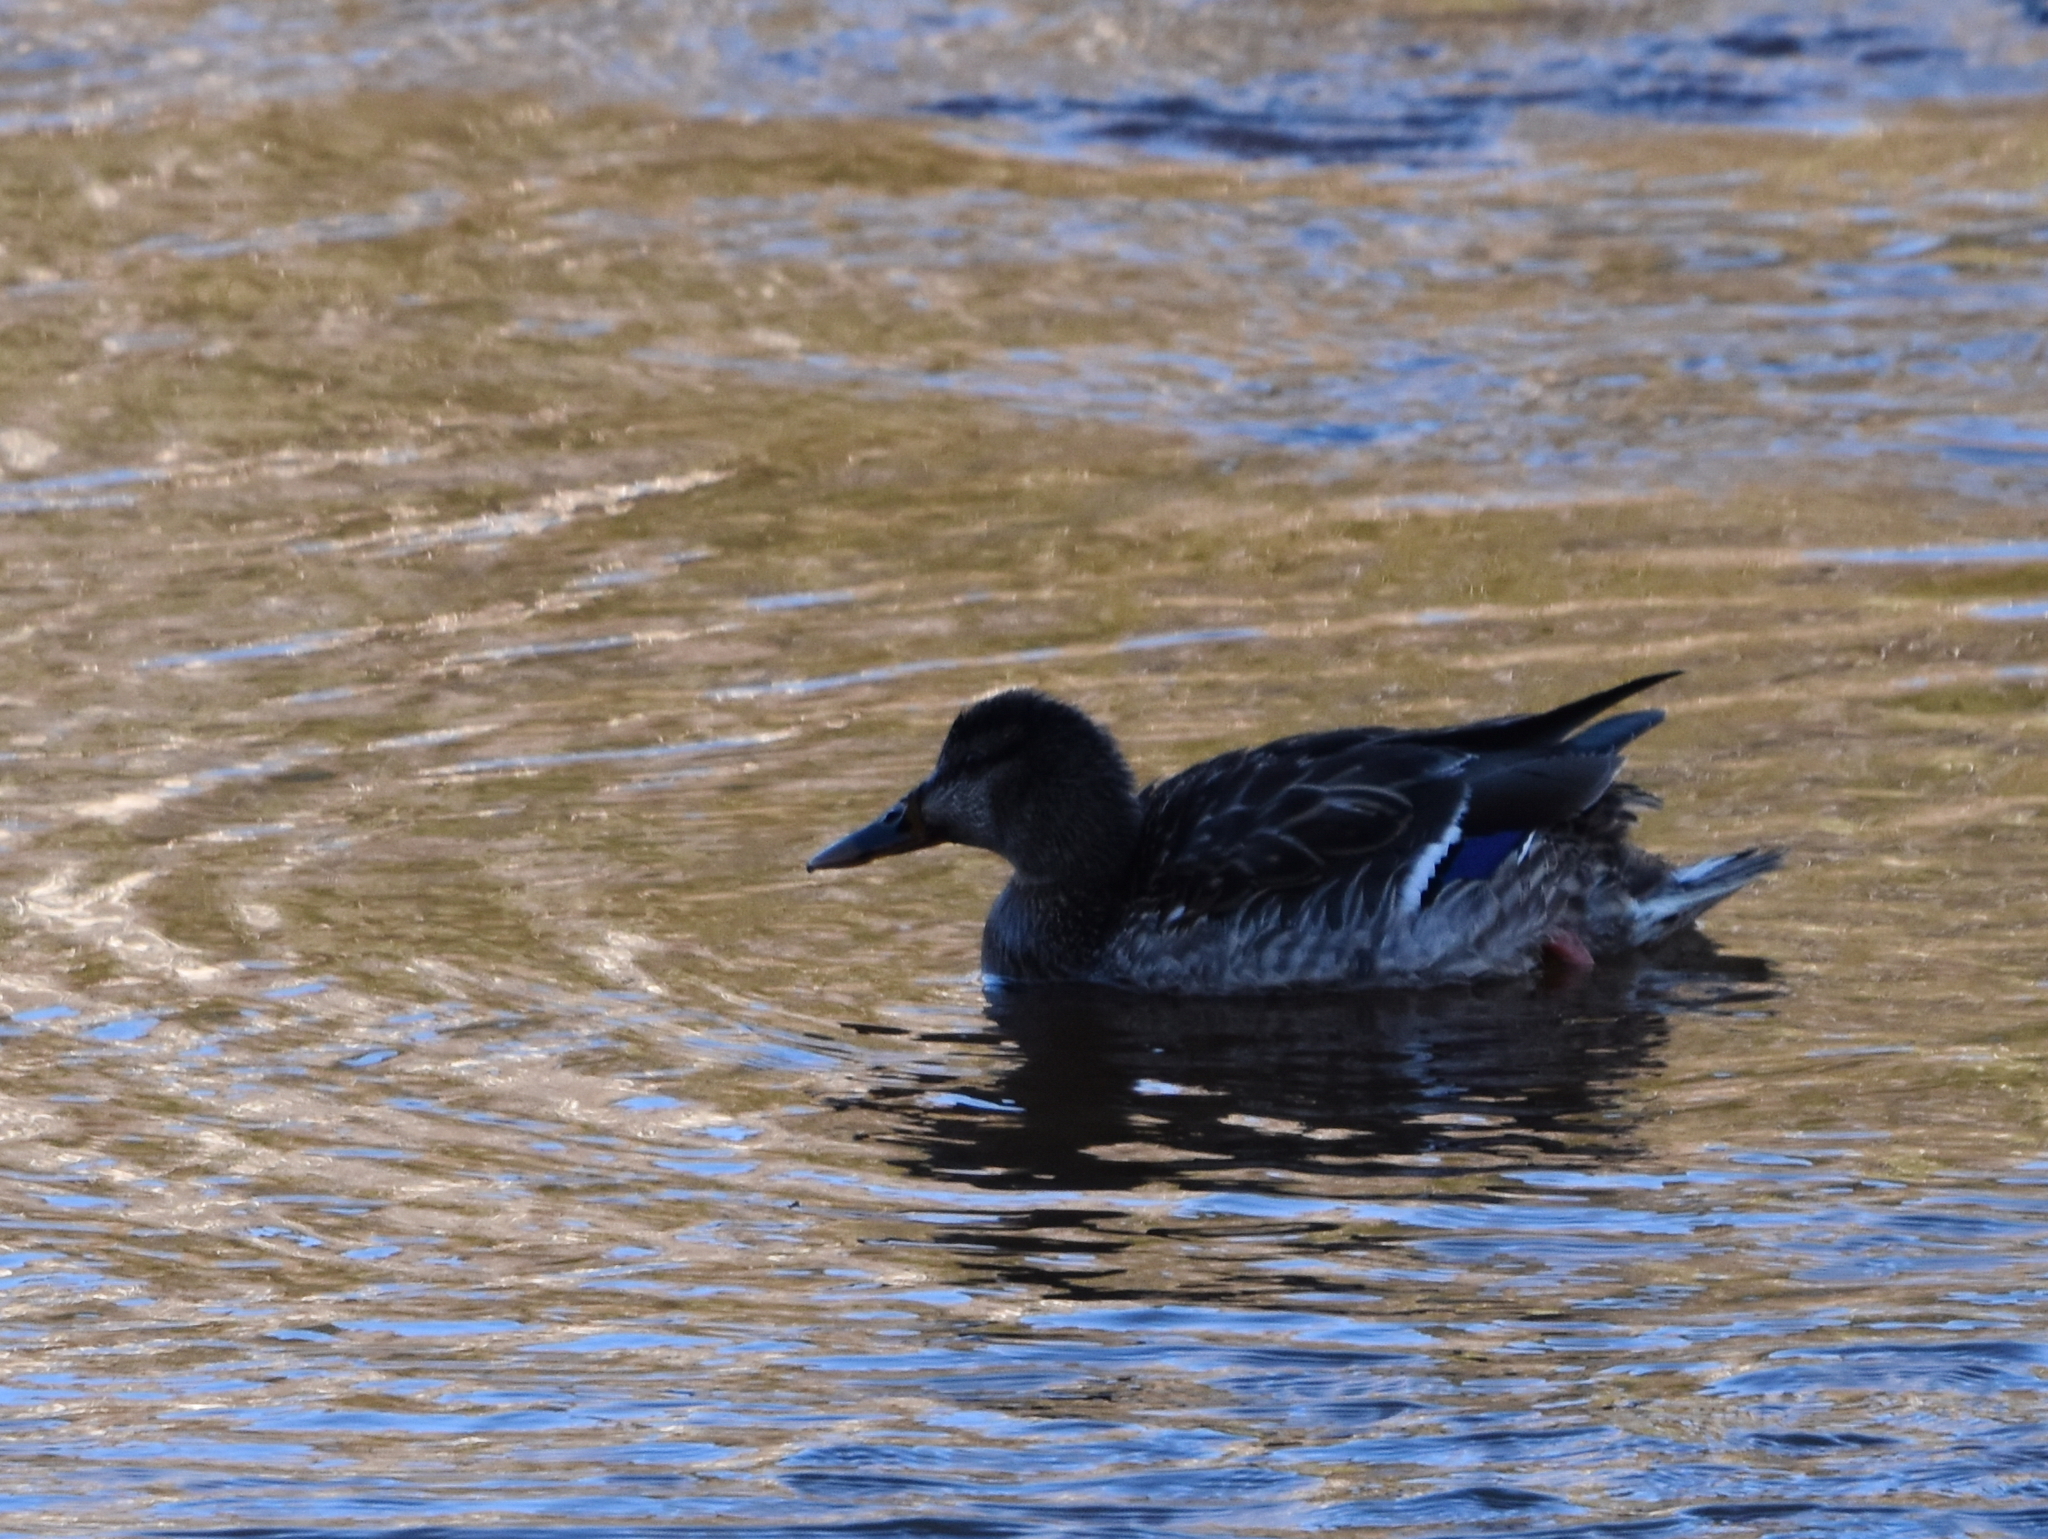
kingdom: Animalia
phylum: Chordata
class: Aves
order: Anseriformes
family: Anatidae
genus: Anas
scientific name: Anas platyrhynchos
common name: Mallard
